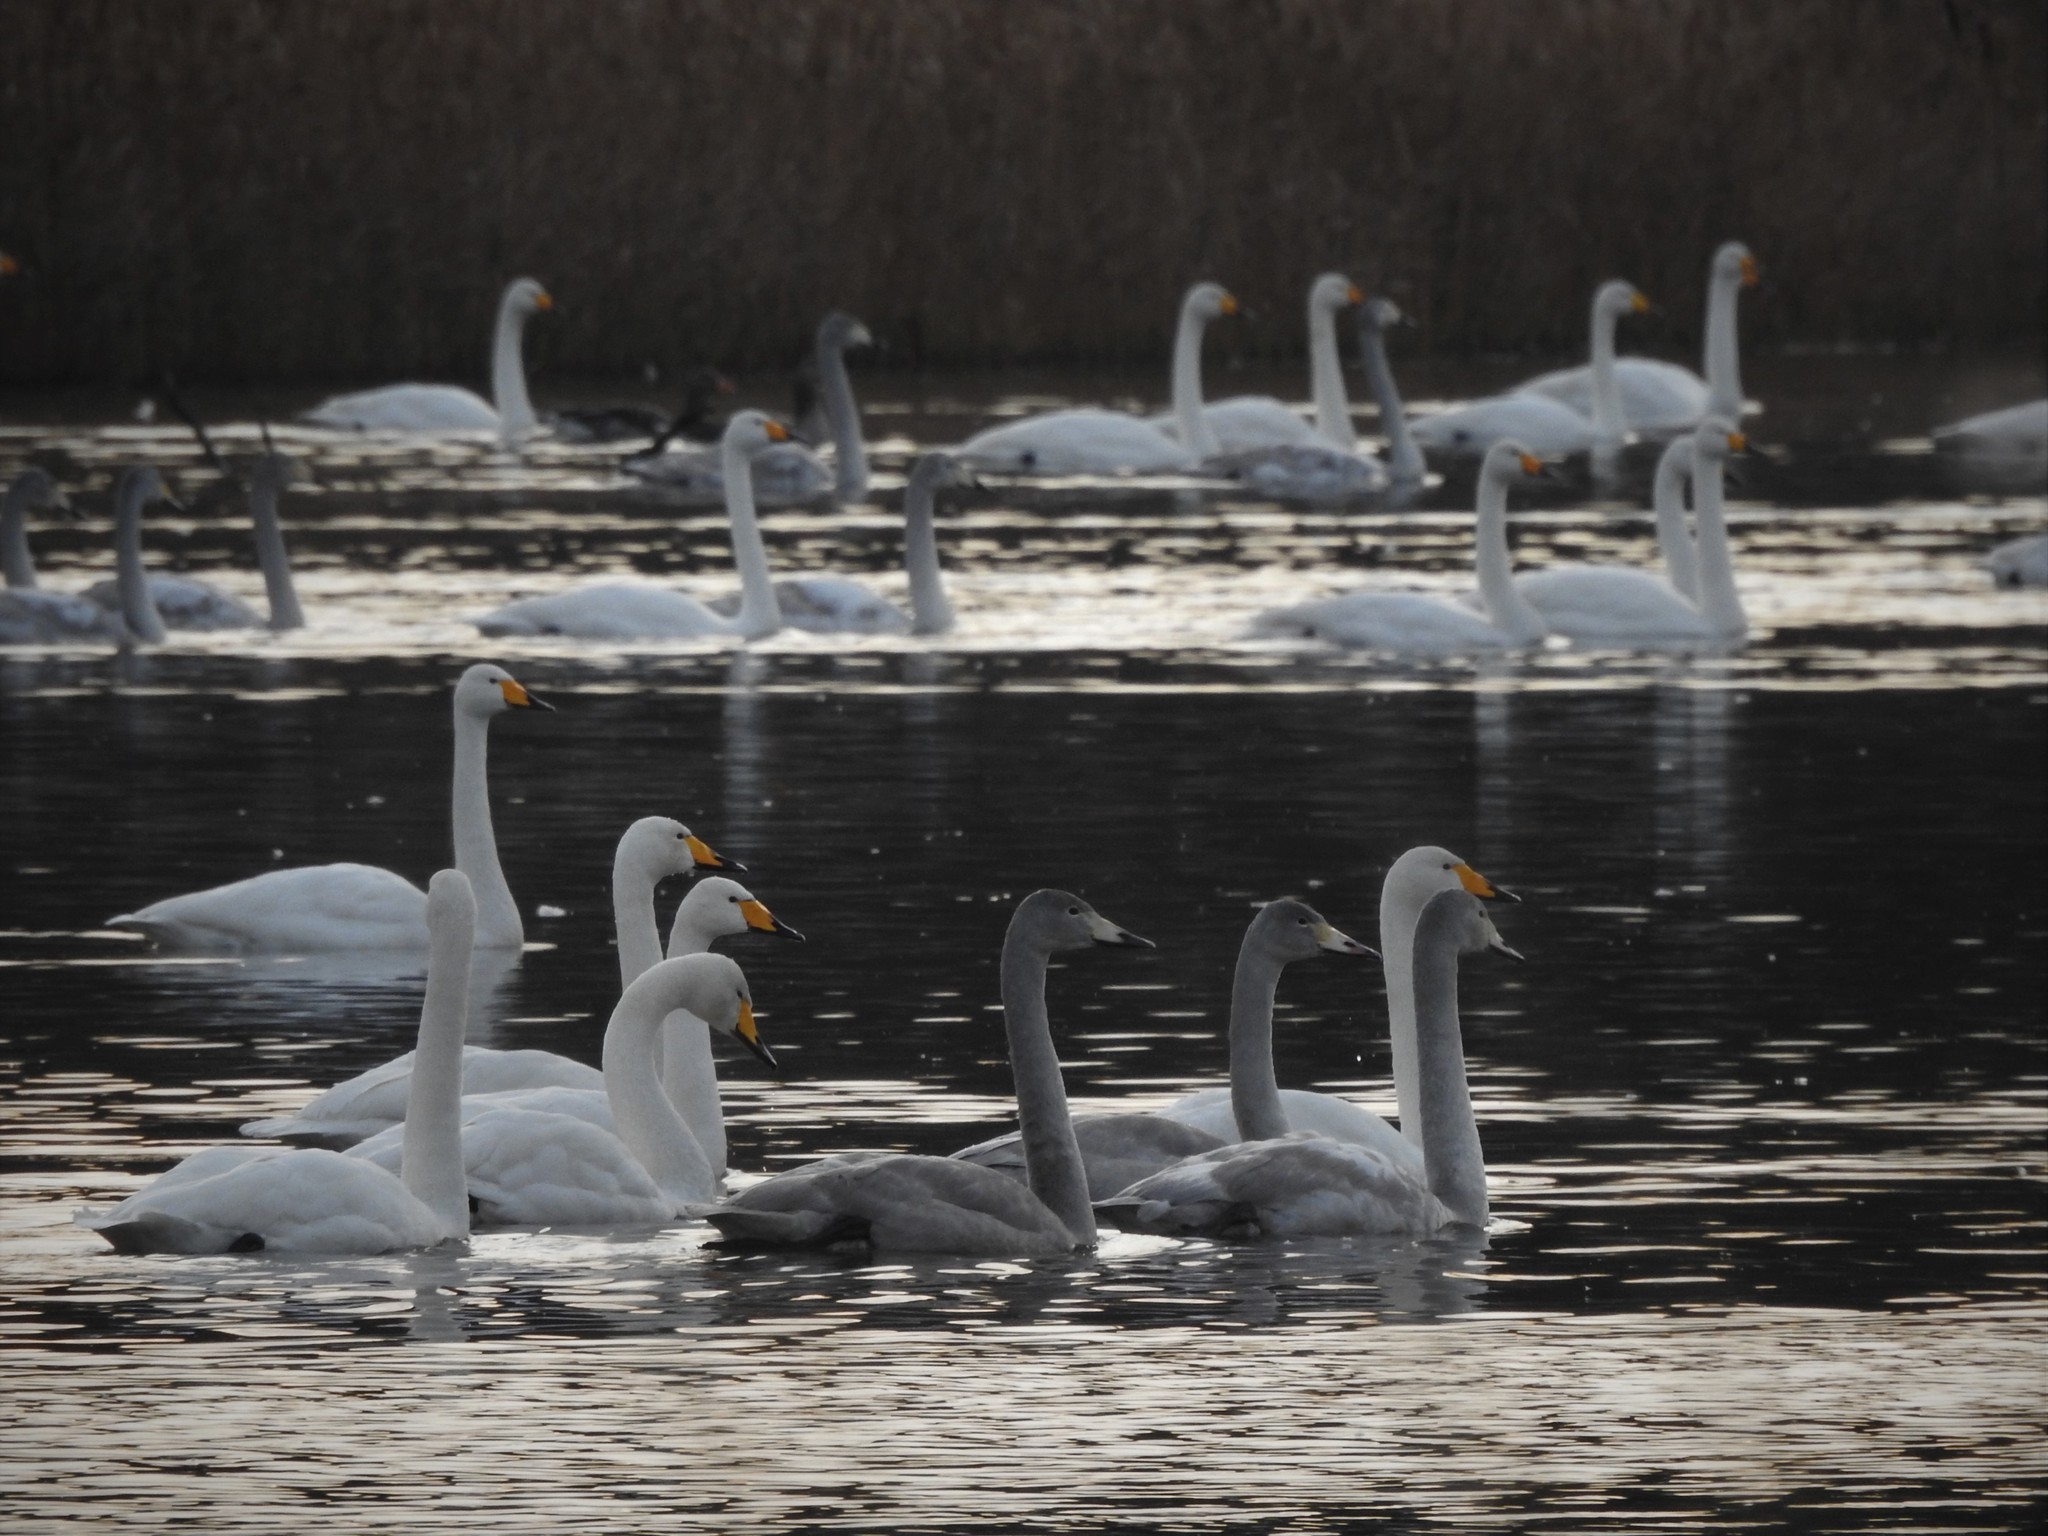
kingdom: Animalia
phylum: Chordata
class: Aves
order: Anseriformes
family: Anatidae
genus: Cygnus
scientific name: Cygnus cygnus
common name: Whooper swan
